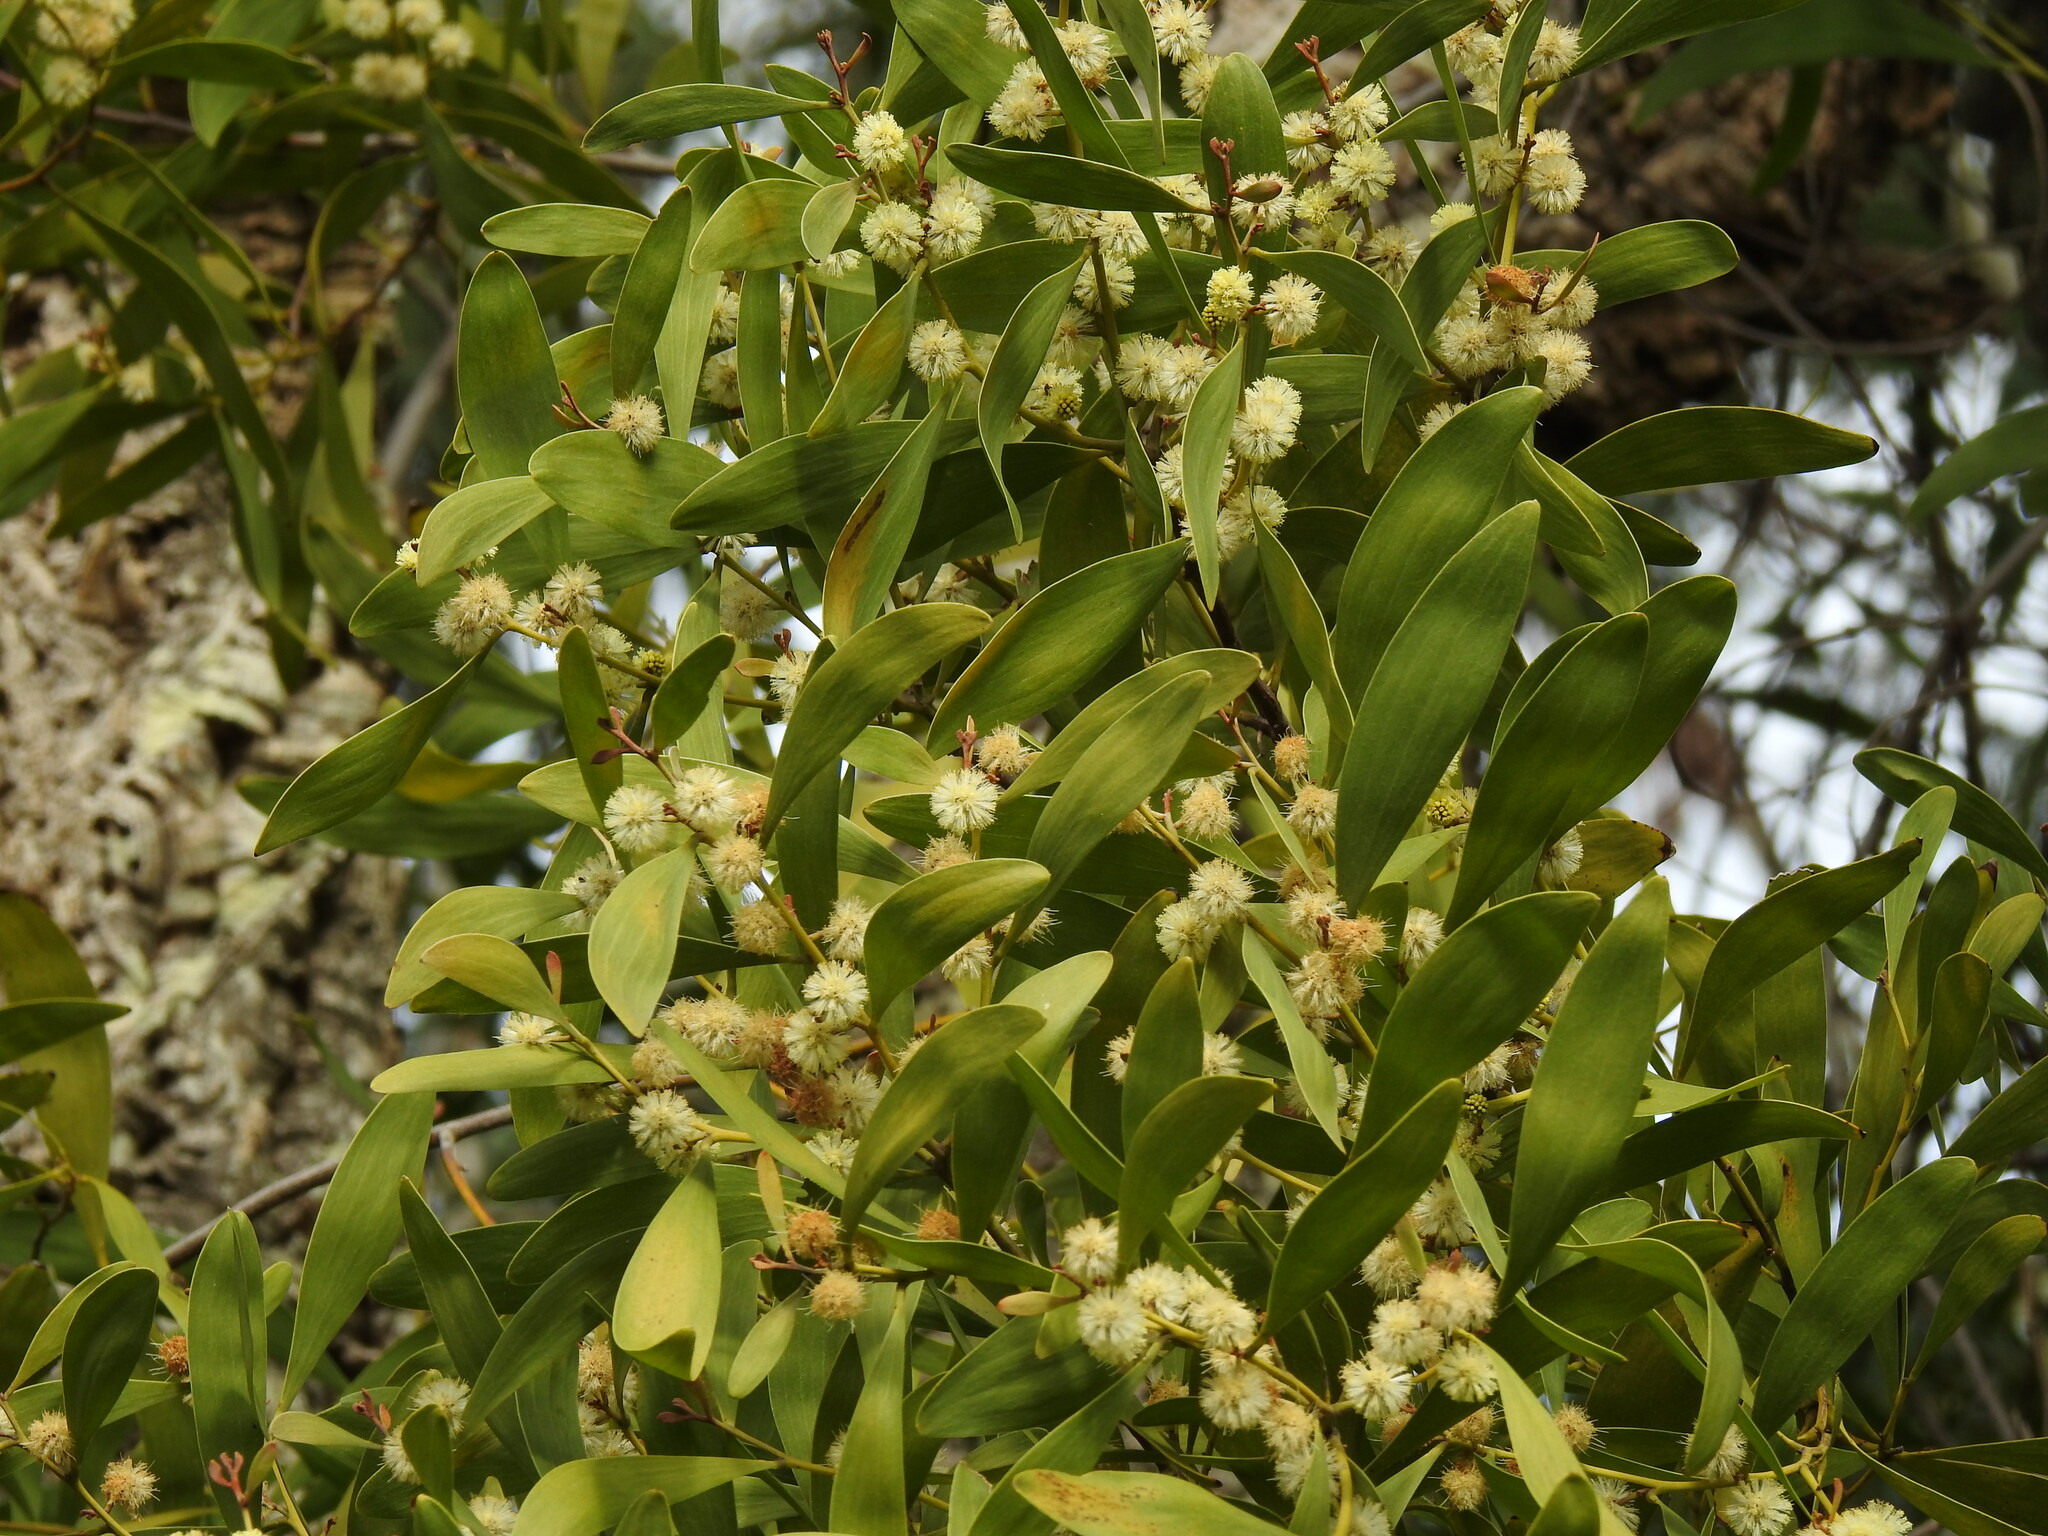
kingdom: Plantae
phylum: Tracheophyta
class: Magnoliopsida
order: Fabales
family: Fabaceae
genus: Acacia
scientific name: Acacia melanoxylon
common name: Blackwood
